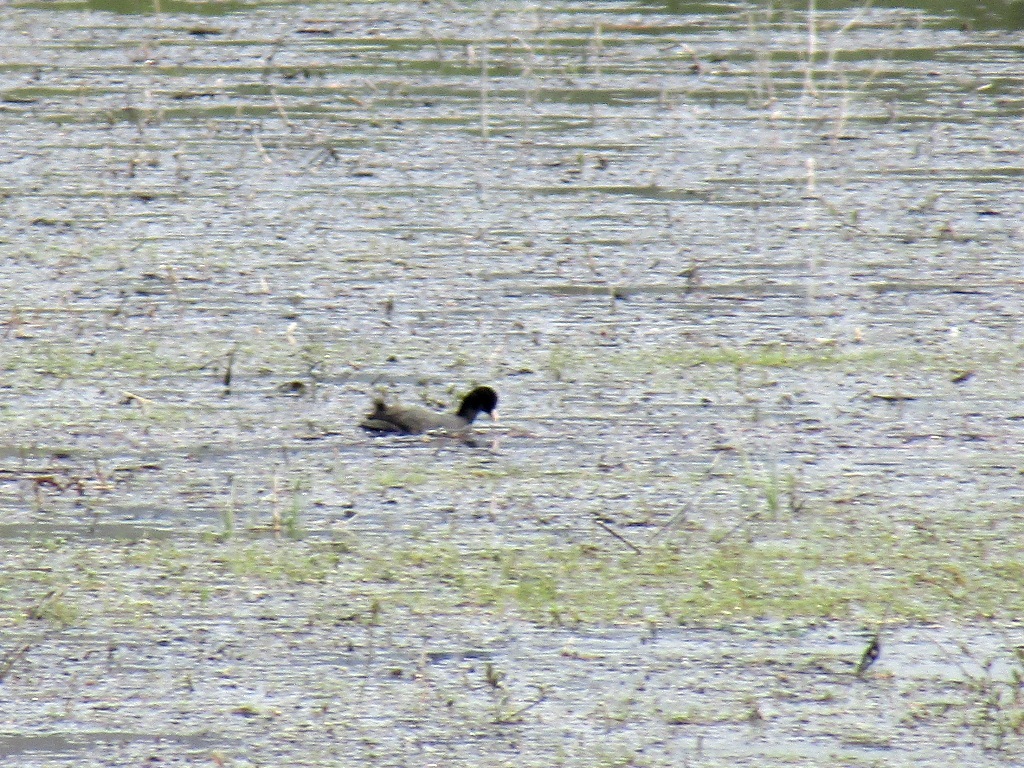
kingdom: Animalia
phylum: Chordata
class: Aves
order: Gruiformes
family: Rallidae
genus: Fulica
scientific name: Fulica atra
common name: Eurasian coot
